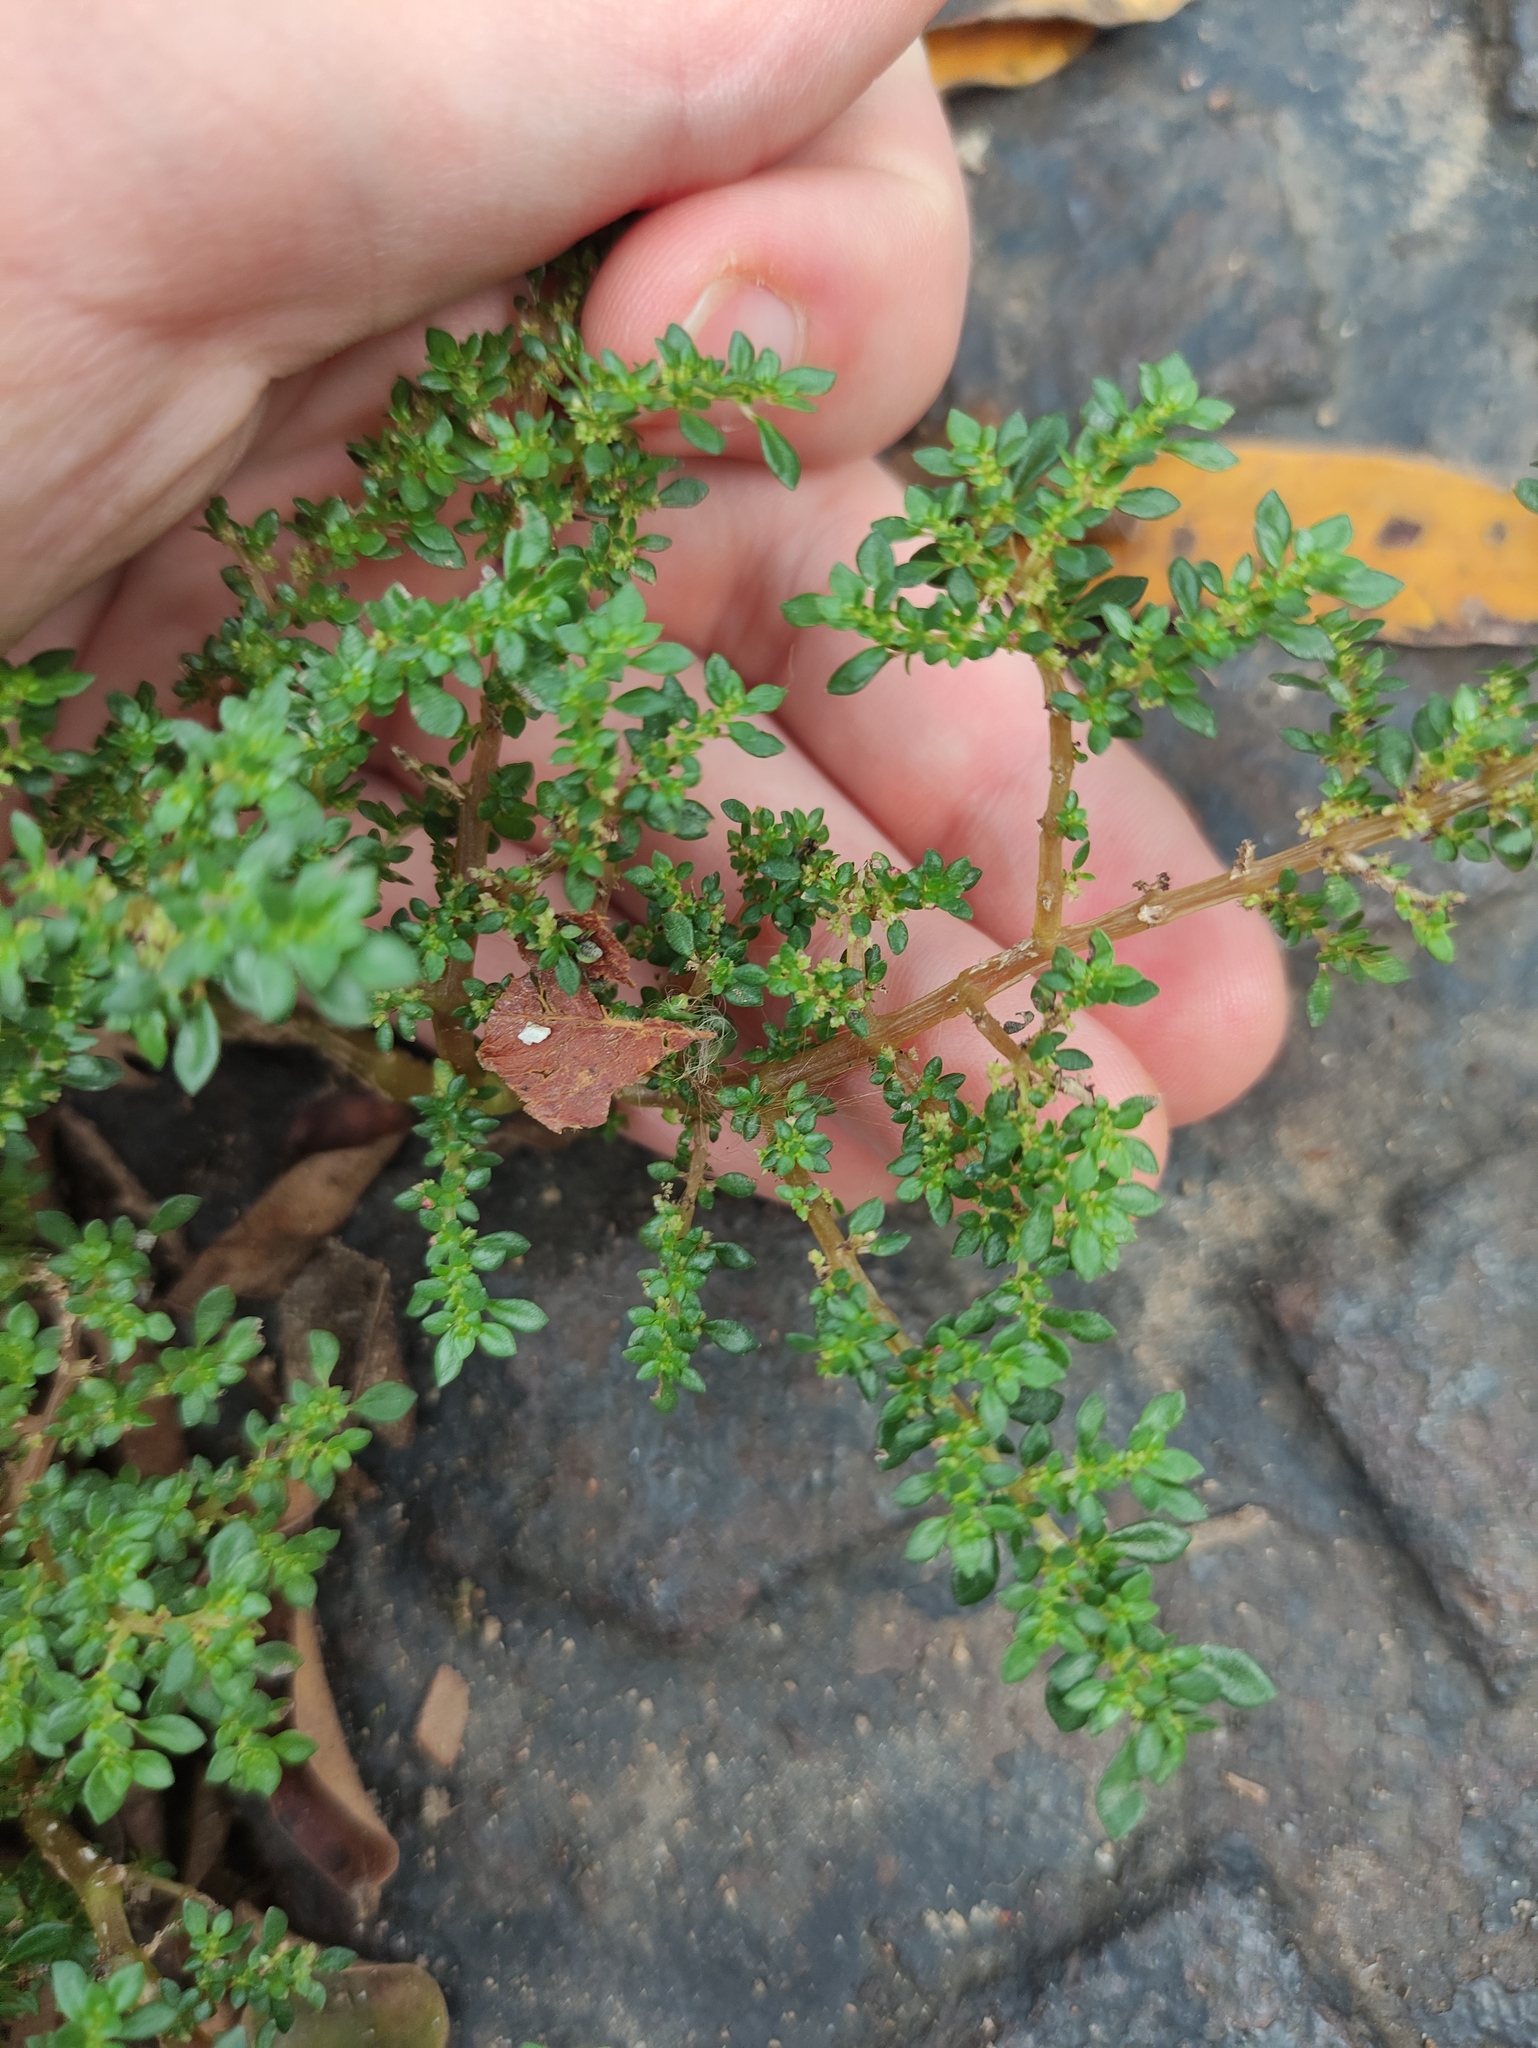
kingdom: Plantae
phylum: Tracheophyta
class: Magnoliopsida
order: Rosales
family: Urticaceae
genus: Pilea
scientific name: Pilea microphylla
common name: Artillery-plant
